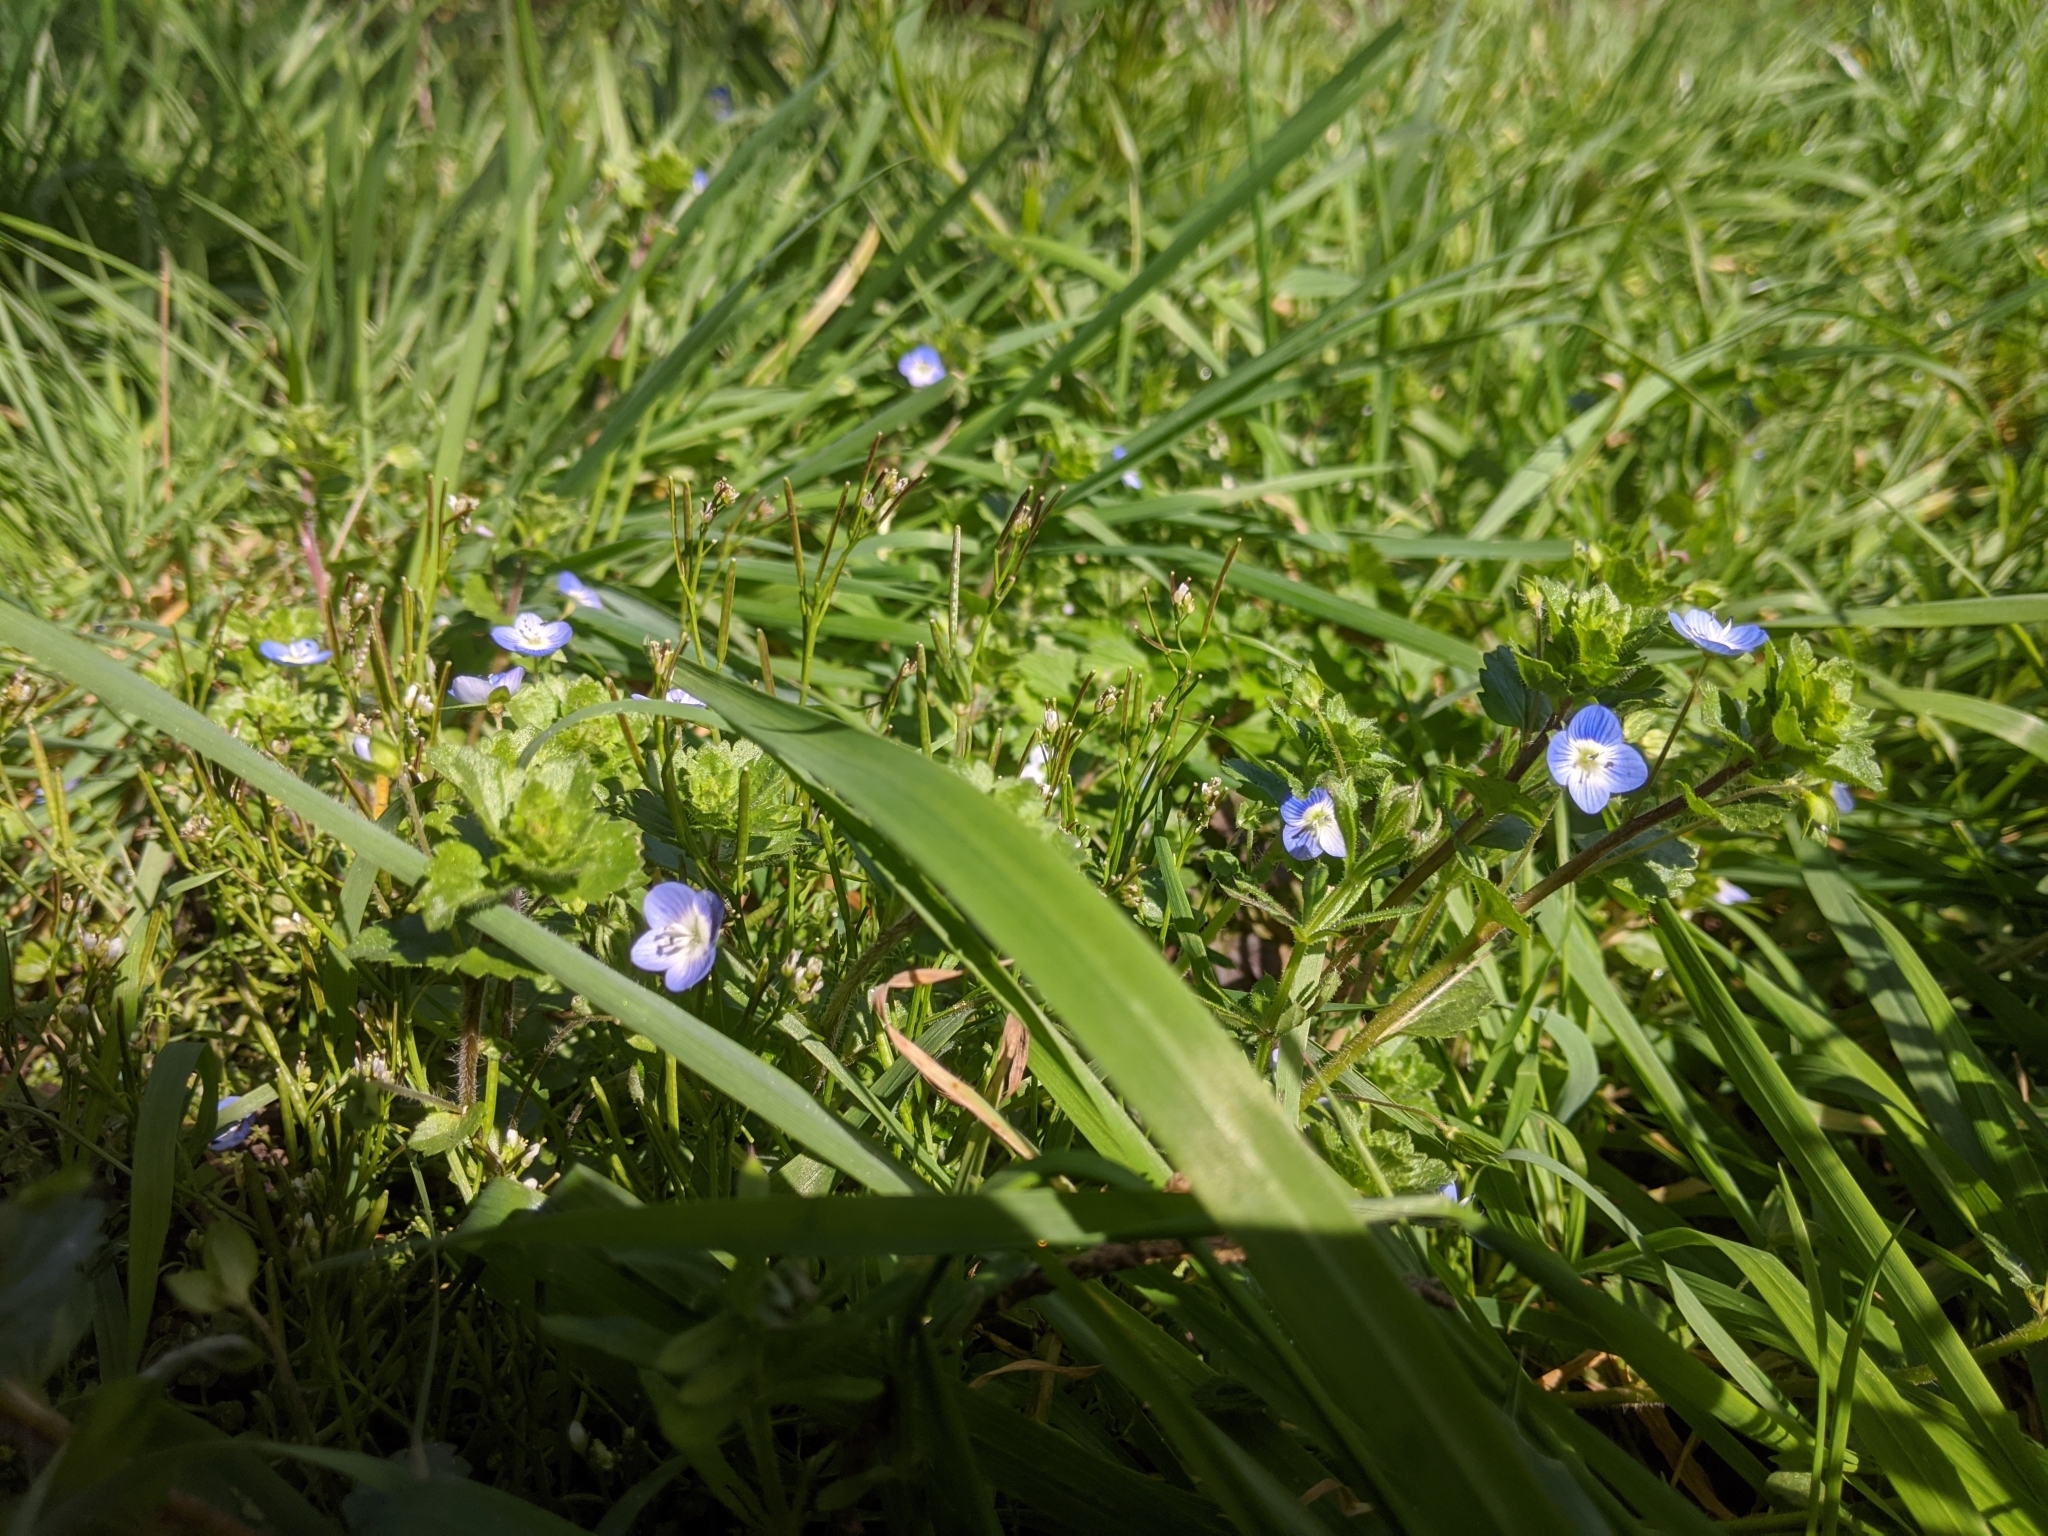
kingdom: Plantae
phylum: Tracheophyta
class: Magnoliopsida
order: Lamiales
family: Plantaginaceae
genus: Veronica
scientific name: Veronica persica
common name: Common field-speedwell
